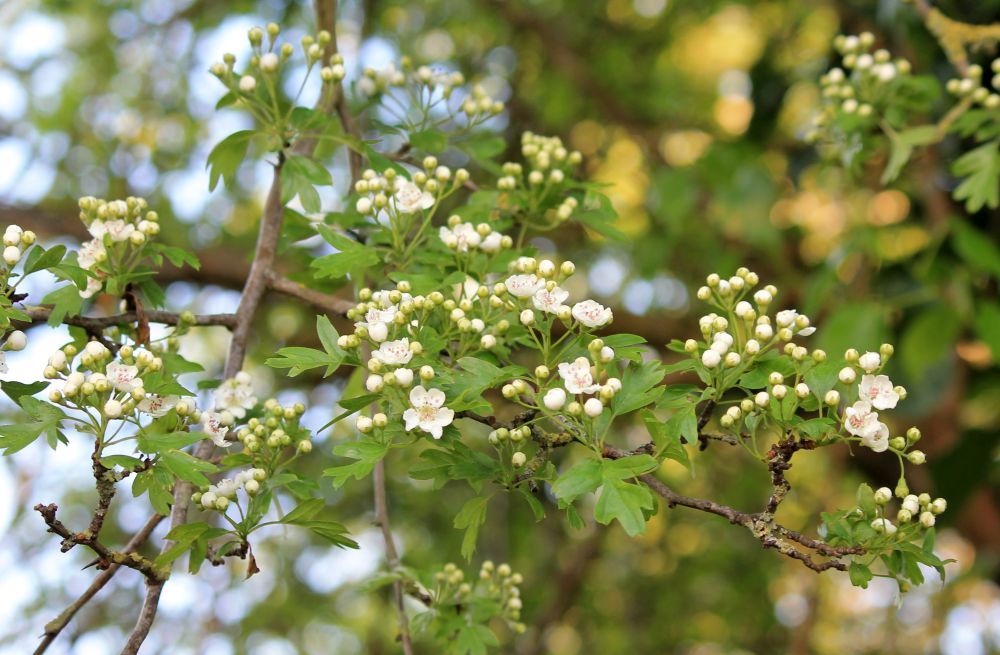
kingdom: Plantae
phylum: Tracheophyta
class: Magnoliopsida
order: Rosales
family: Rosaceae
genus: Crataegus
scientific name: Crataegus monogyna
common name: Hawthorn
